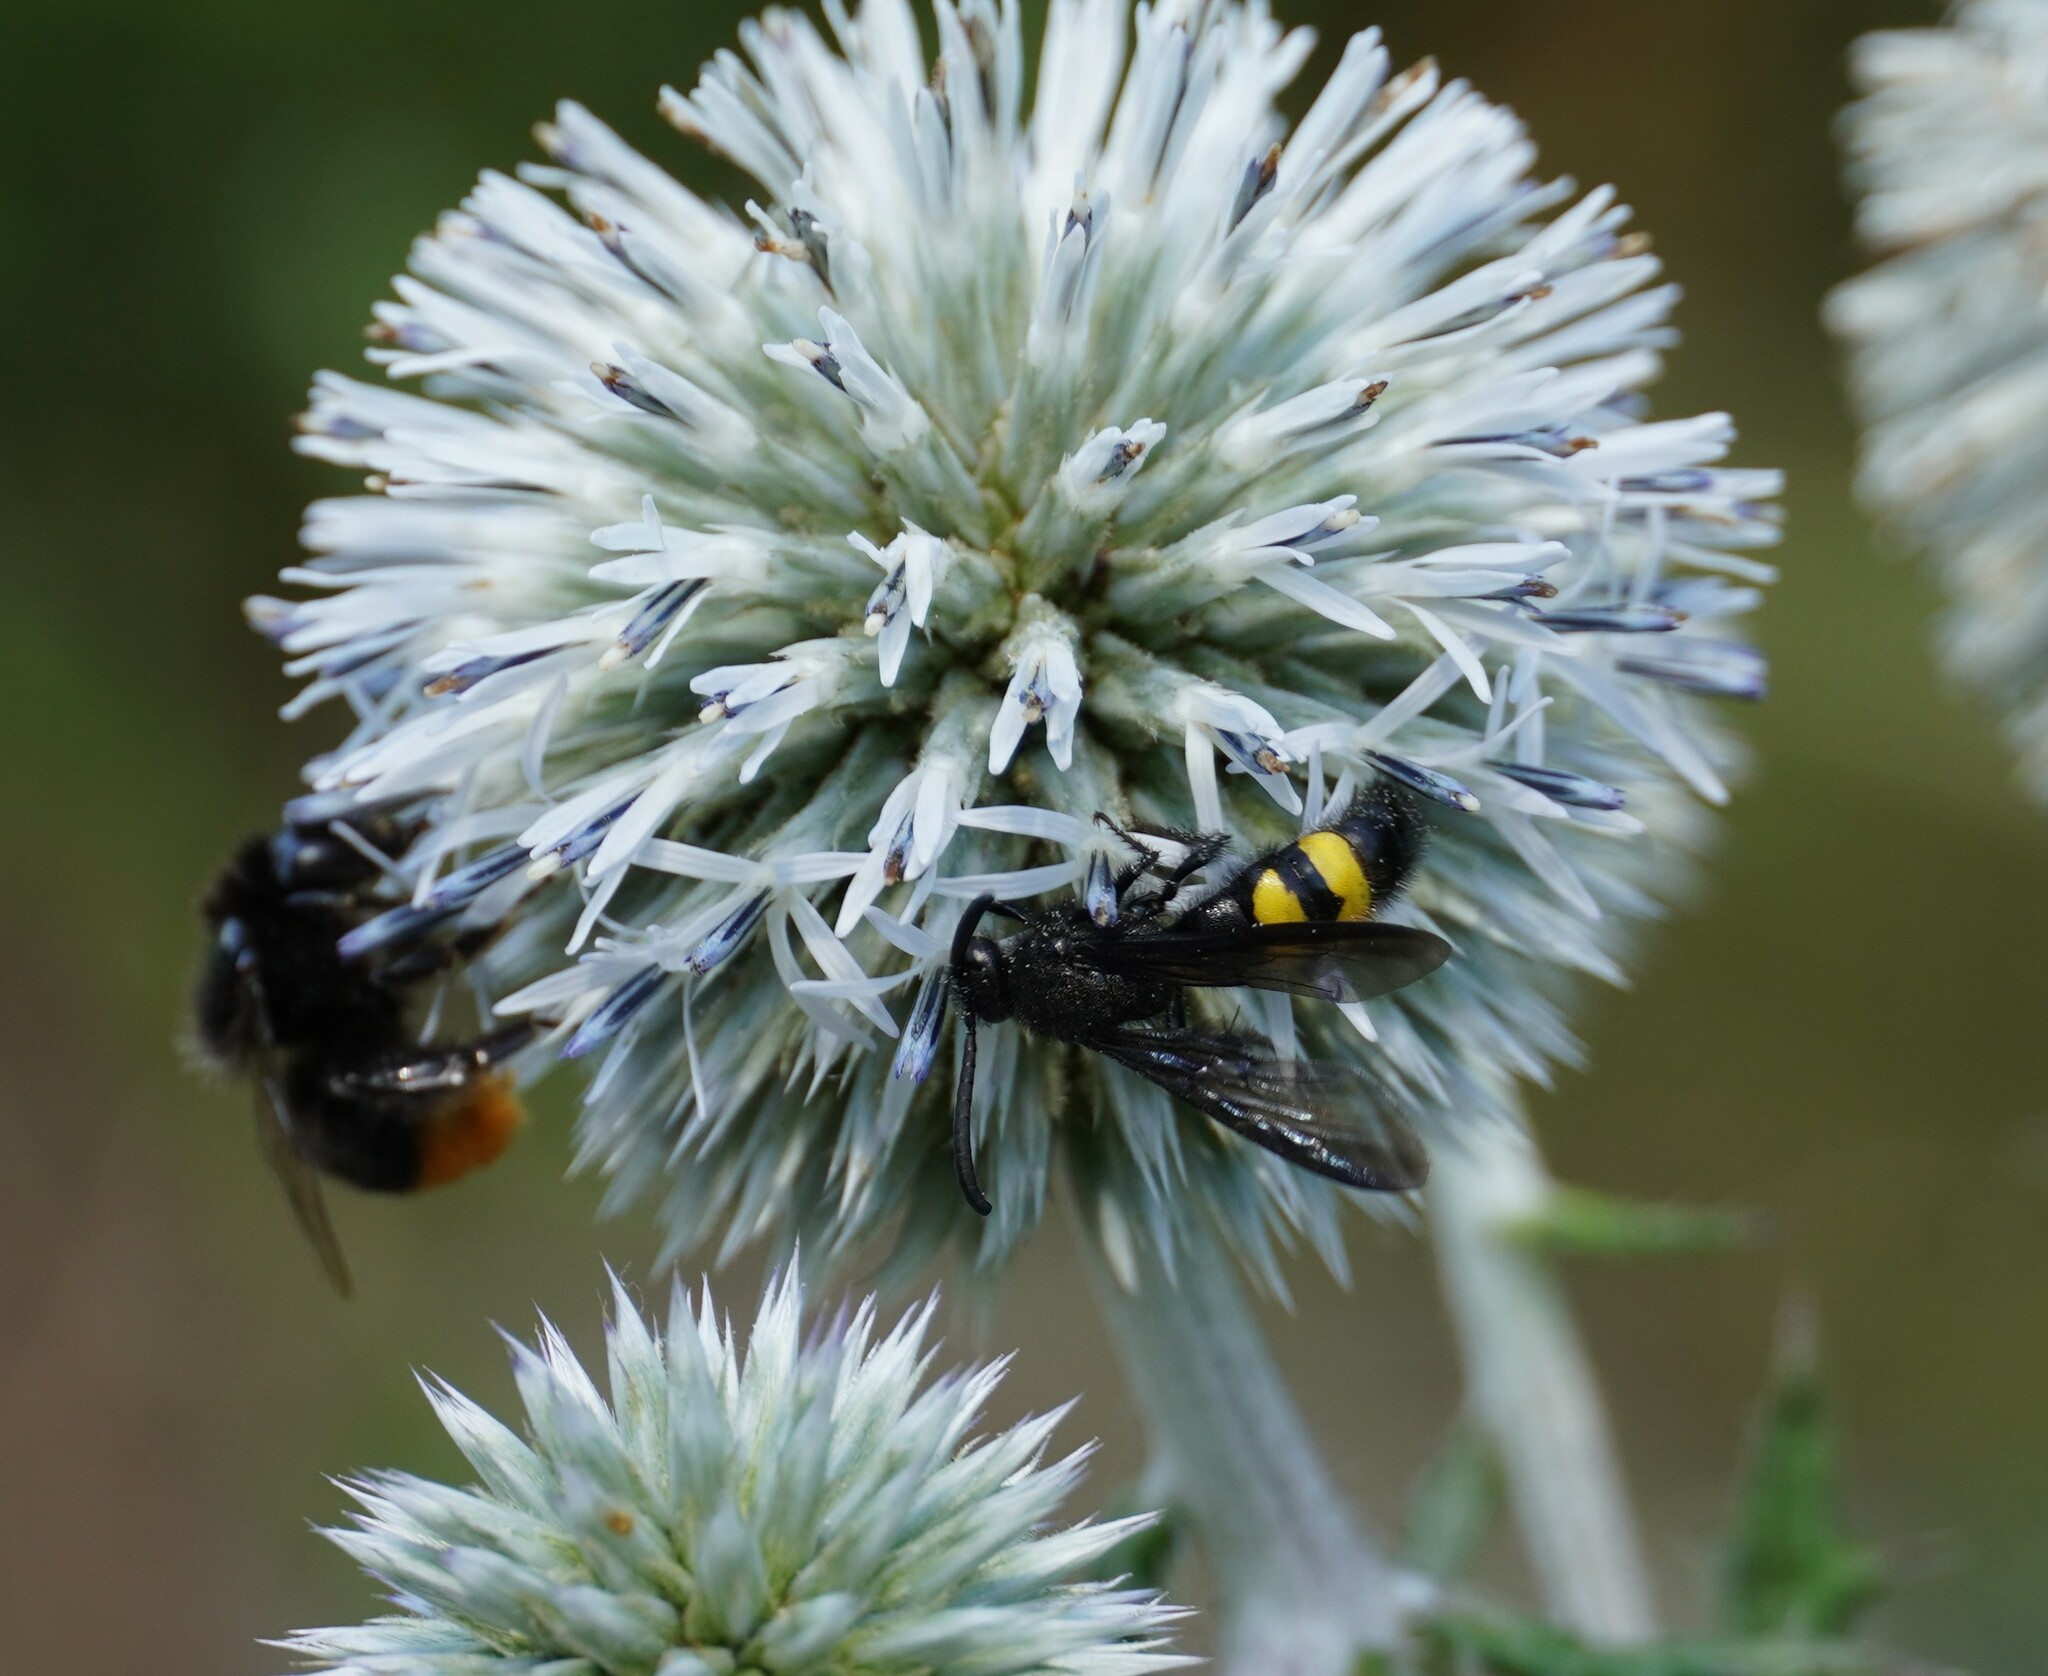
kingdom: Animalia
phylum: Arthropoda
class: Insecta
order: Hymenoptera
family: Scoliidae
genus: Scolia
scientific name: Scolia hirta
